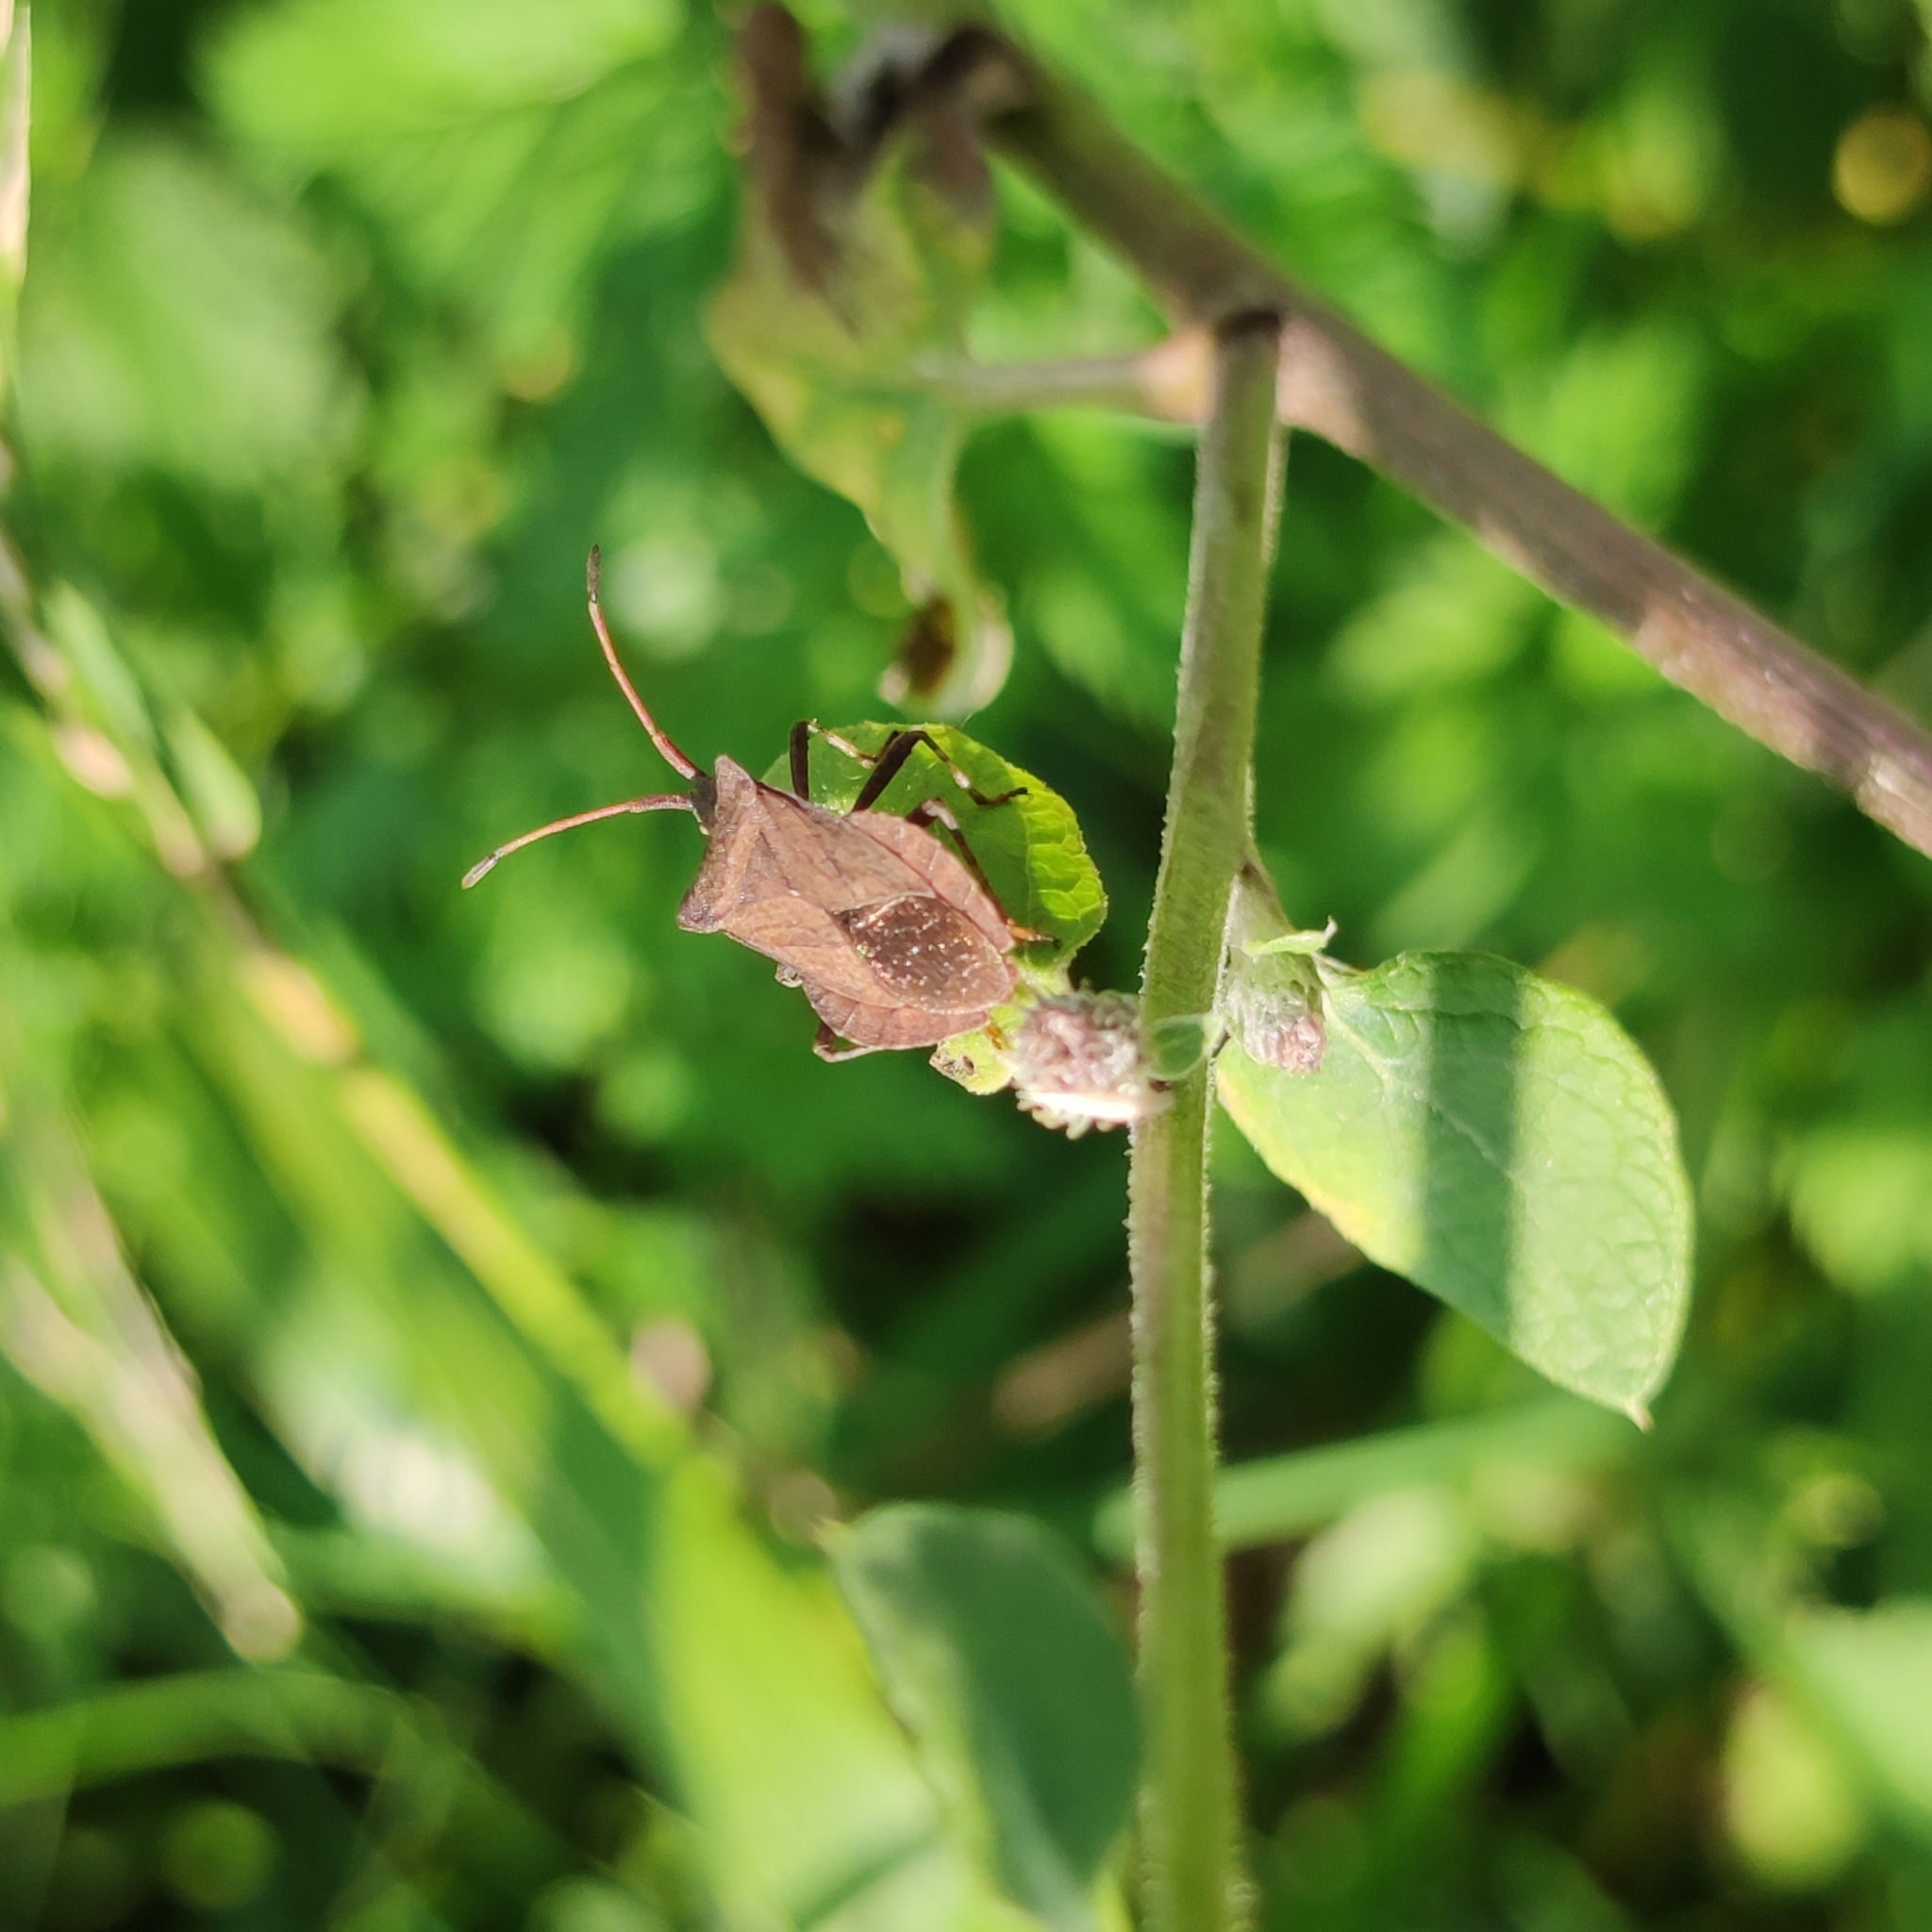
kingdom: Animalia
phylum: Arthropoda
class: Insecta
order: Hemiptera
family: Coreidae
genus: Coreus
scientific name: Coreus marginatus
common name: Dock bug
